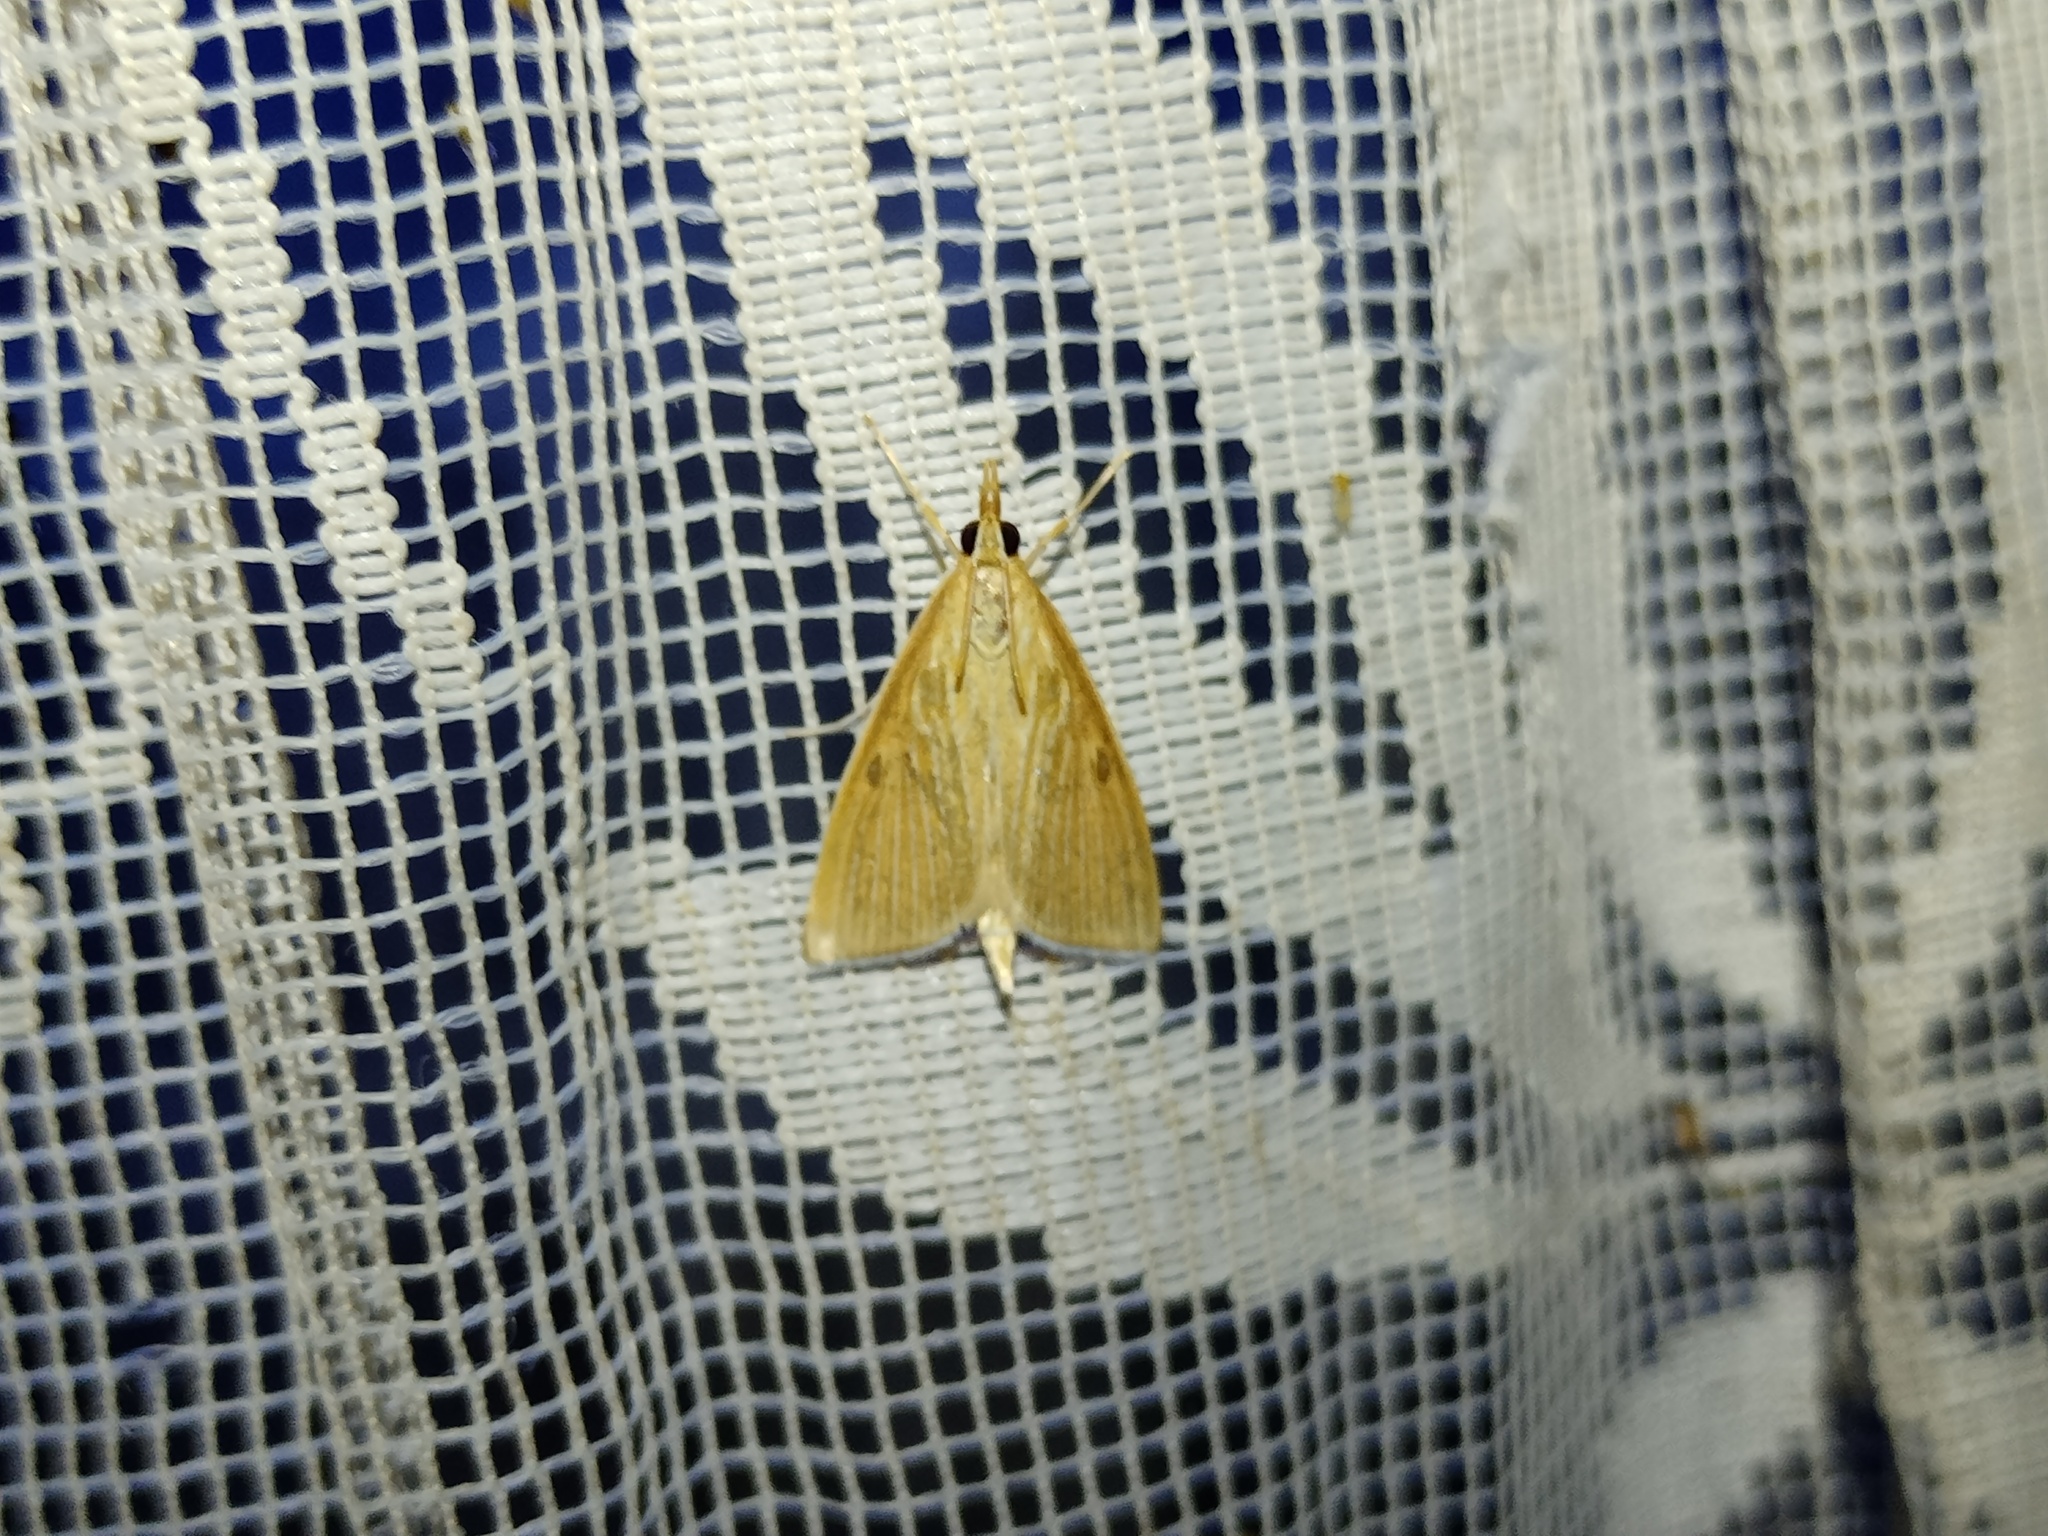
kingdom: Animalia
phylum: Arthropoda
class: Insecta
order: Lepidoptera
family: Crambidae
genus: Calamochrous
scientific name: Calamochrous Sclerocona acutella
